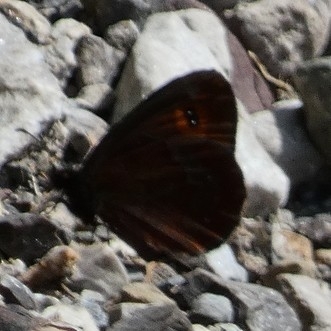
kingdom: Animalia
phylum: Arthropoda
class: Insecta
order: Lepidoptera
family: Nymphalidae
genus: Erebia
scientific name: Erebia aethiops
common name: Scotch argus
